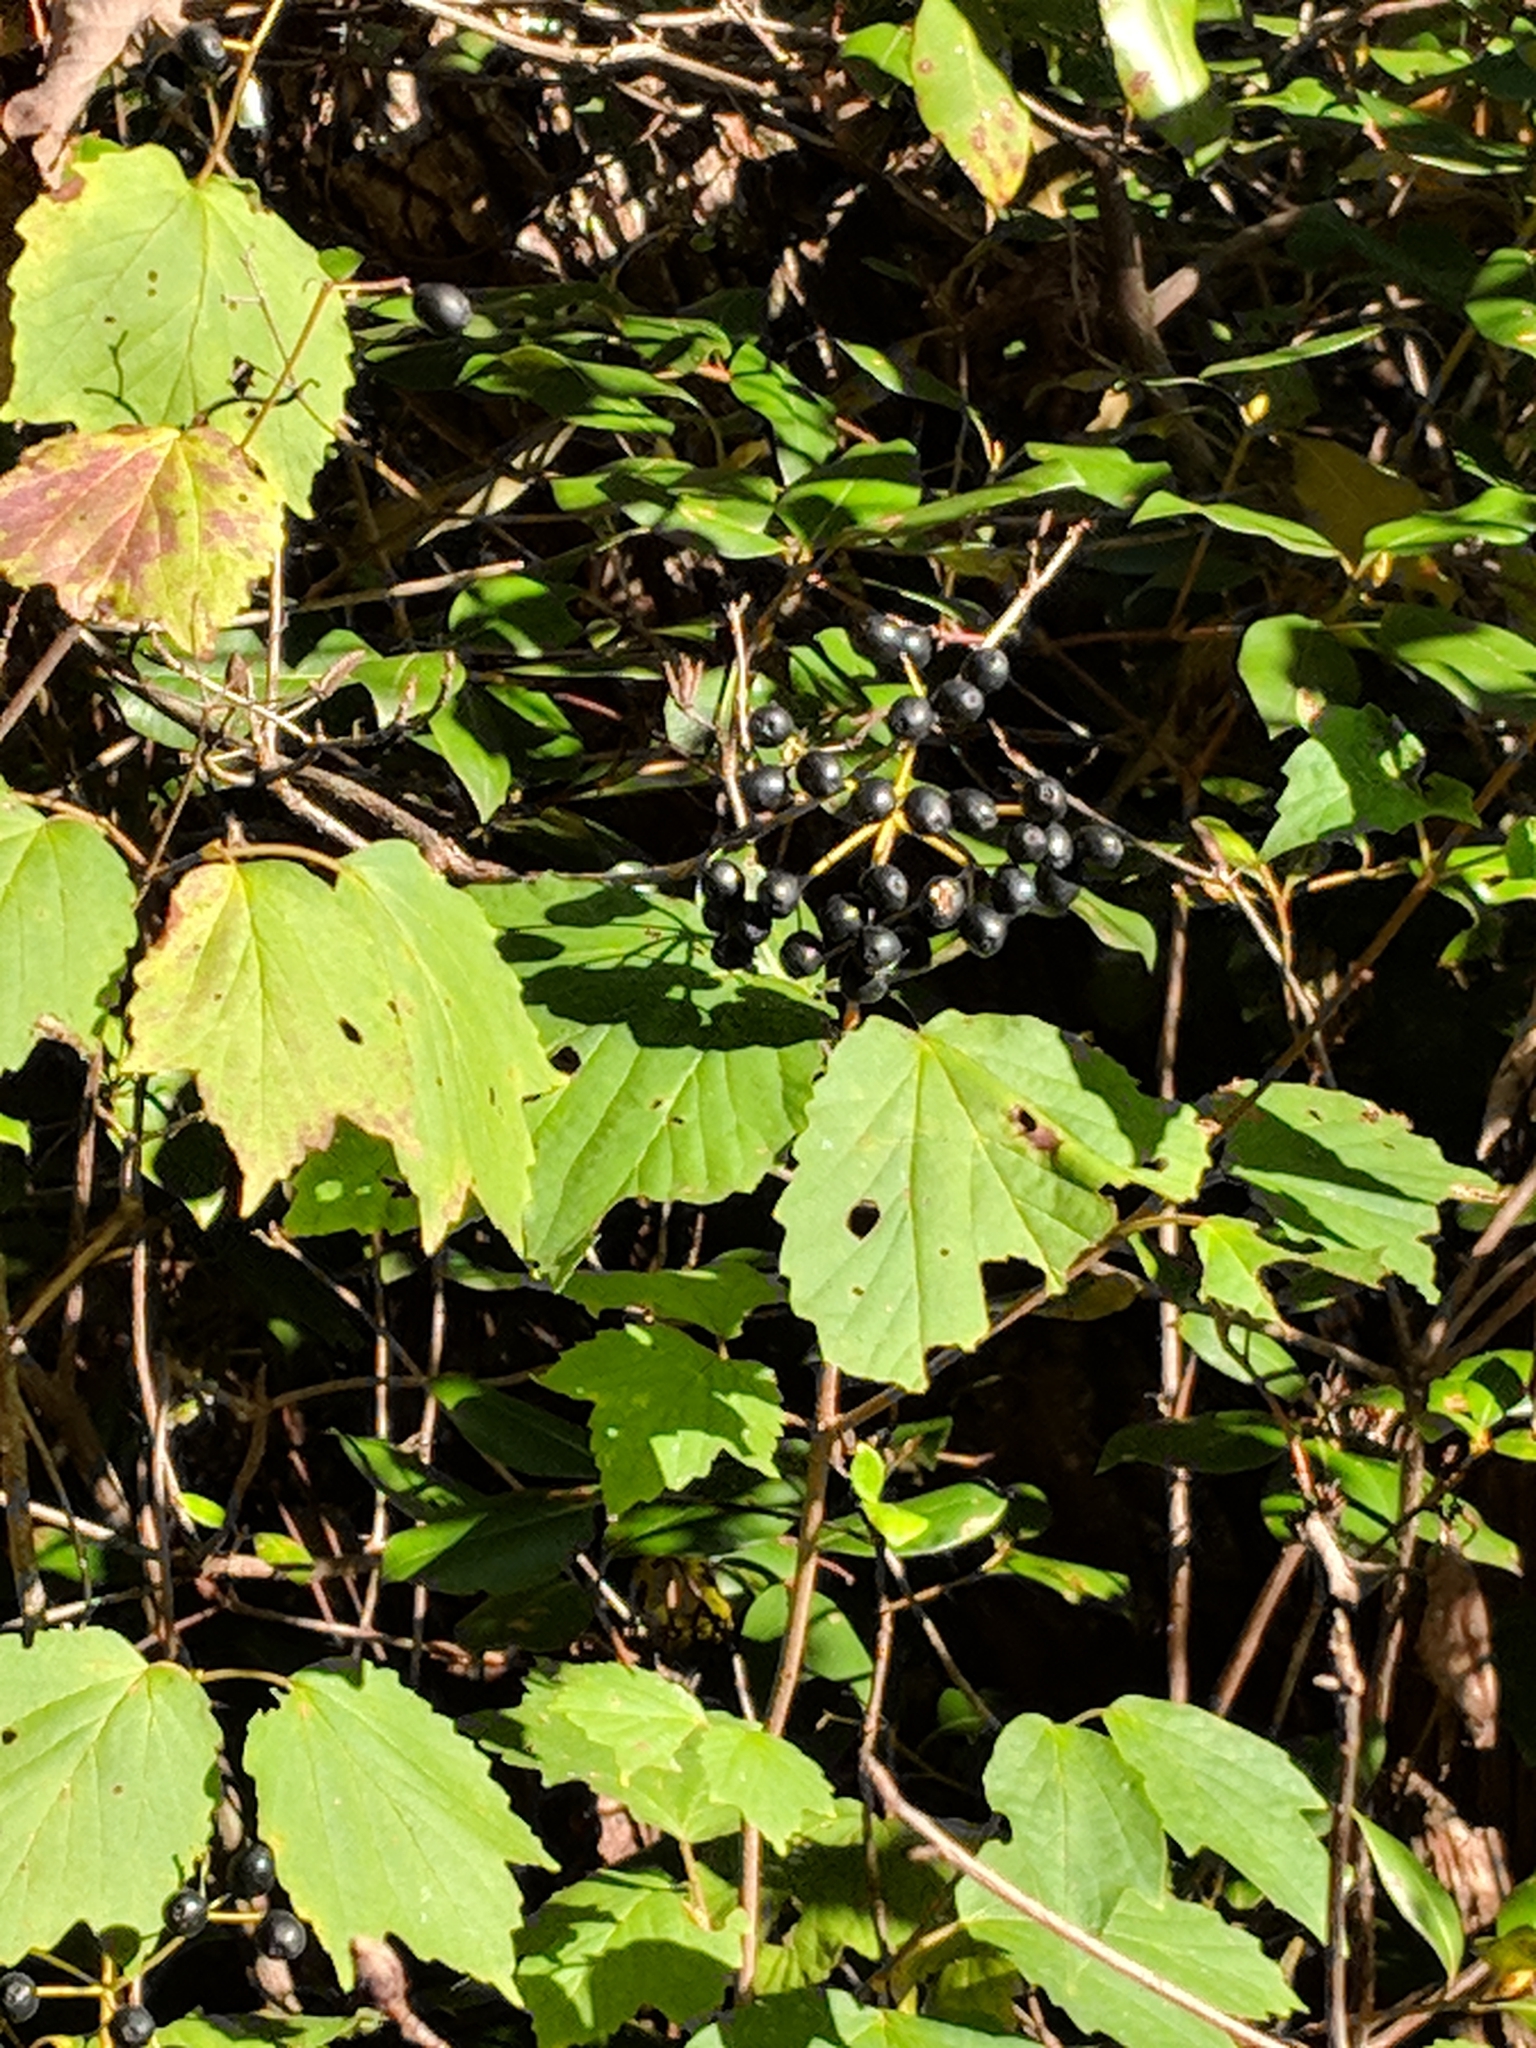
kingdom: Plantae
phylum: Tracheophyta
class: Magnoliopsida
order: Dipsacales
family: Viburnaceae
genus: Viburnum
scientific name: Viburnum acerifolium
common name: Dockmackie
